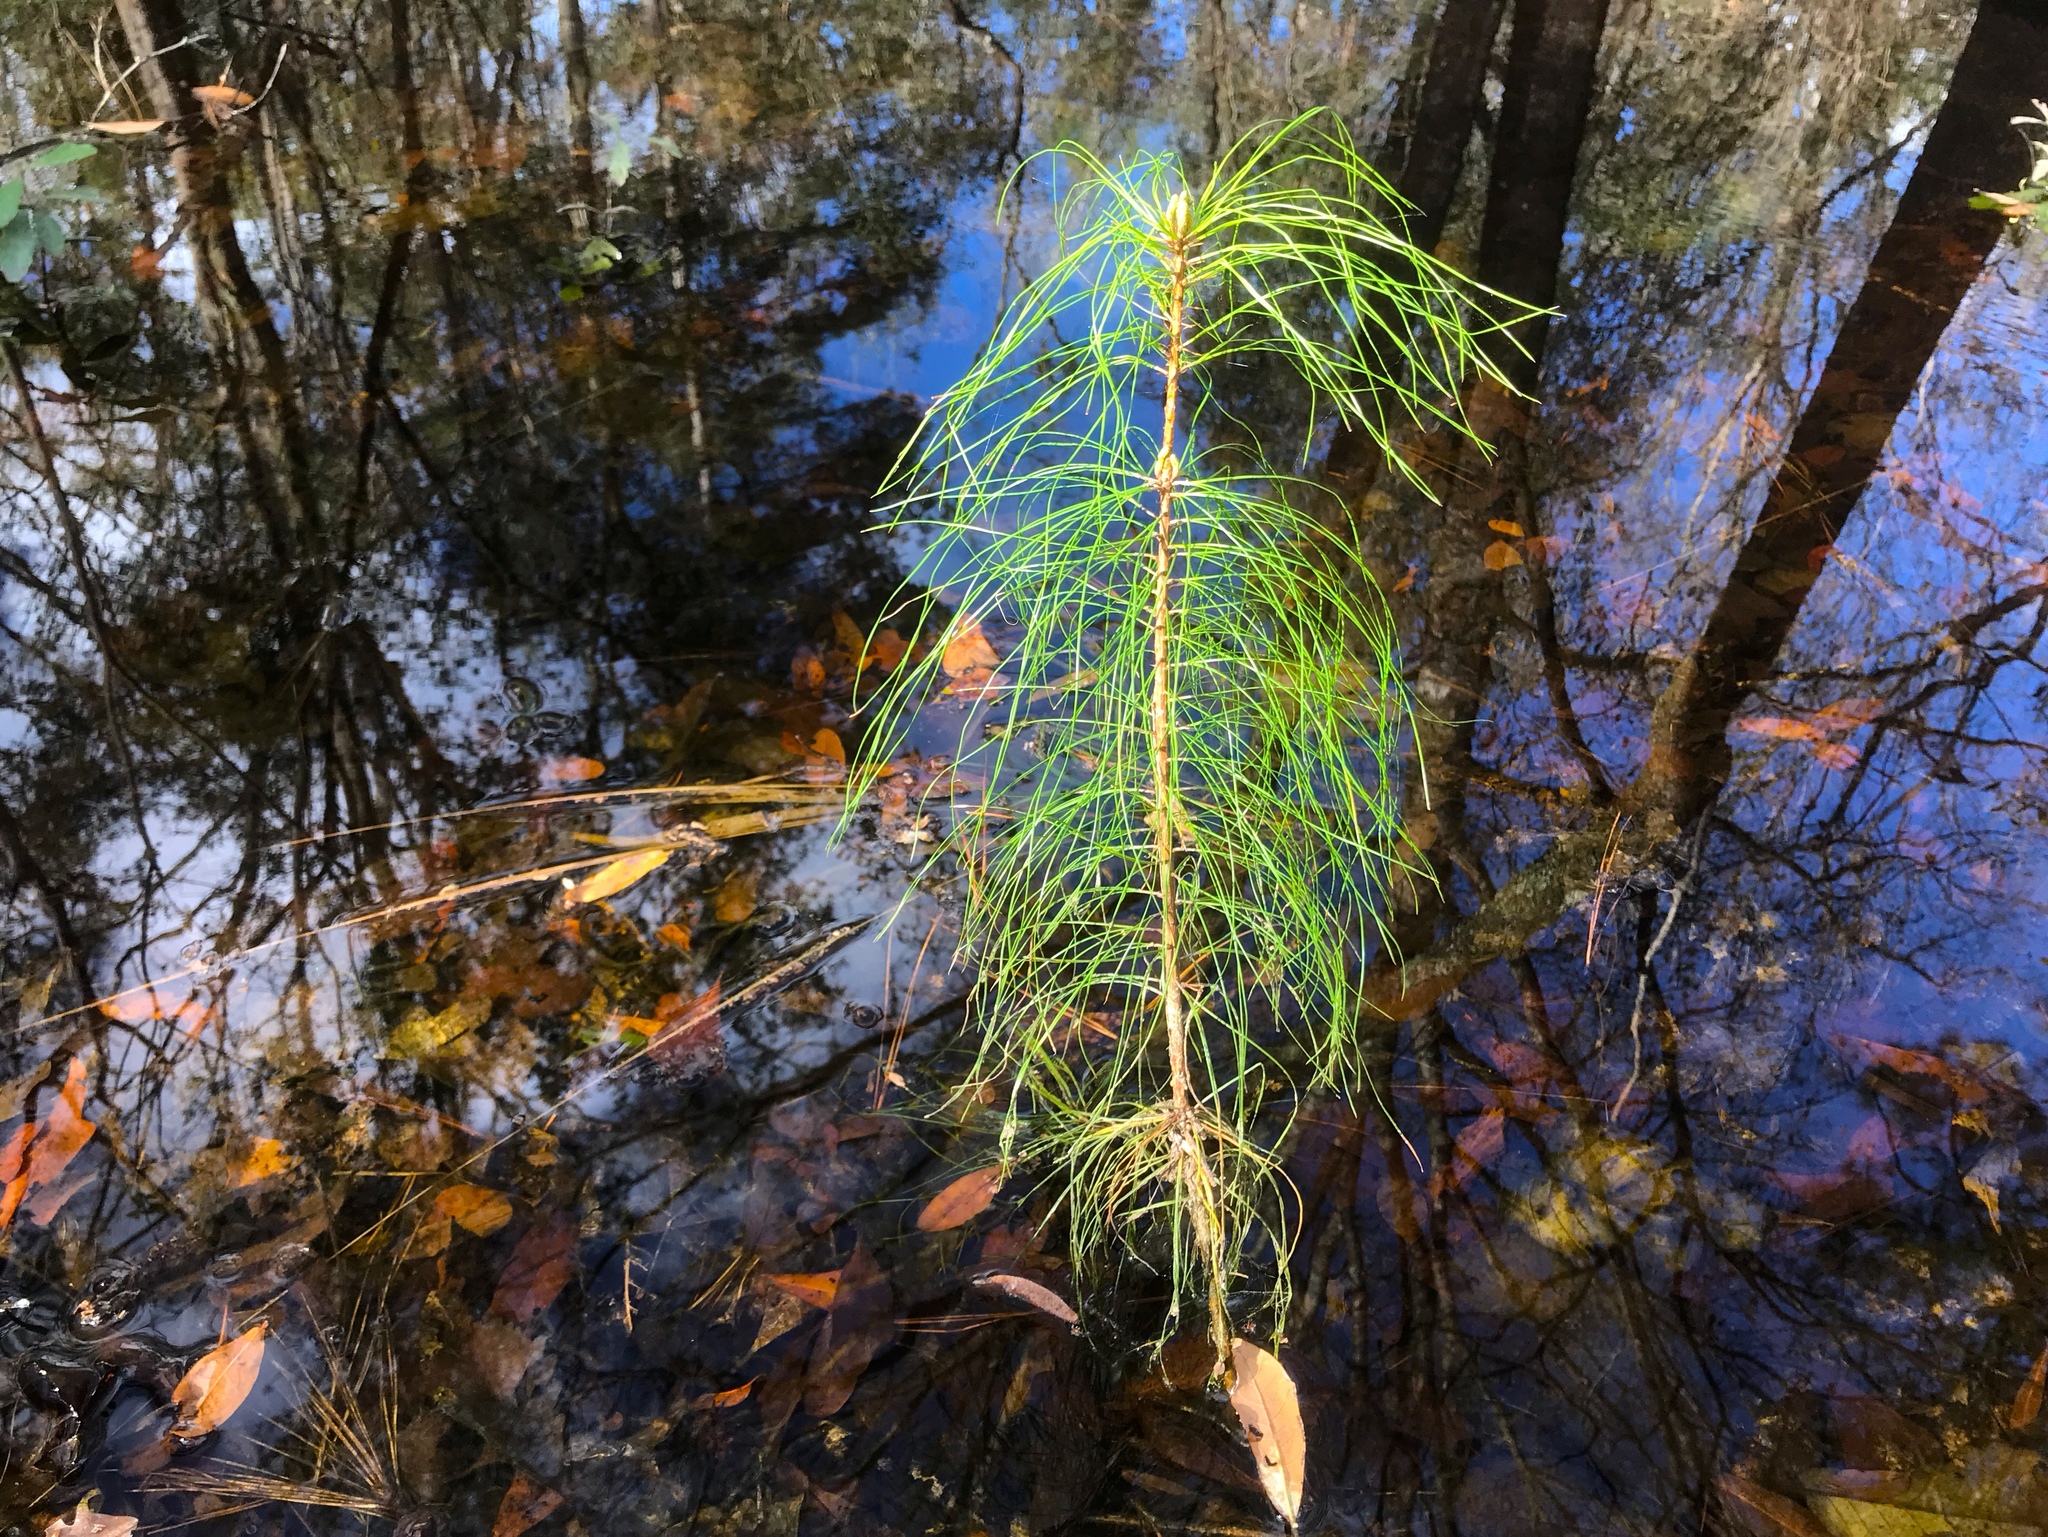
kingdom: Plantae
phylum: Tracheophyta
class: Pinopsida
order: Pinales
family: Pinaceae
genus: Pinus
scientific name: Pinus taeda
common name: Loblolly pine
